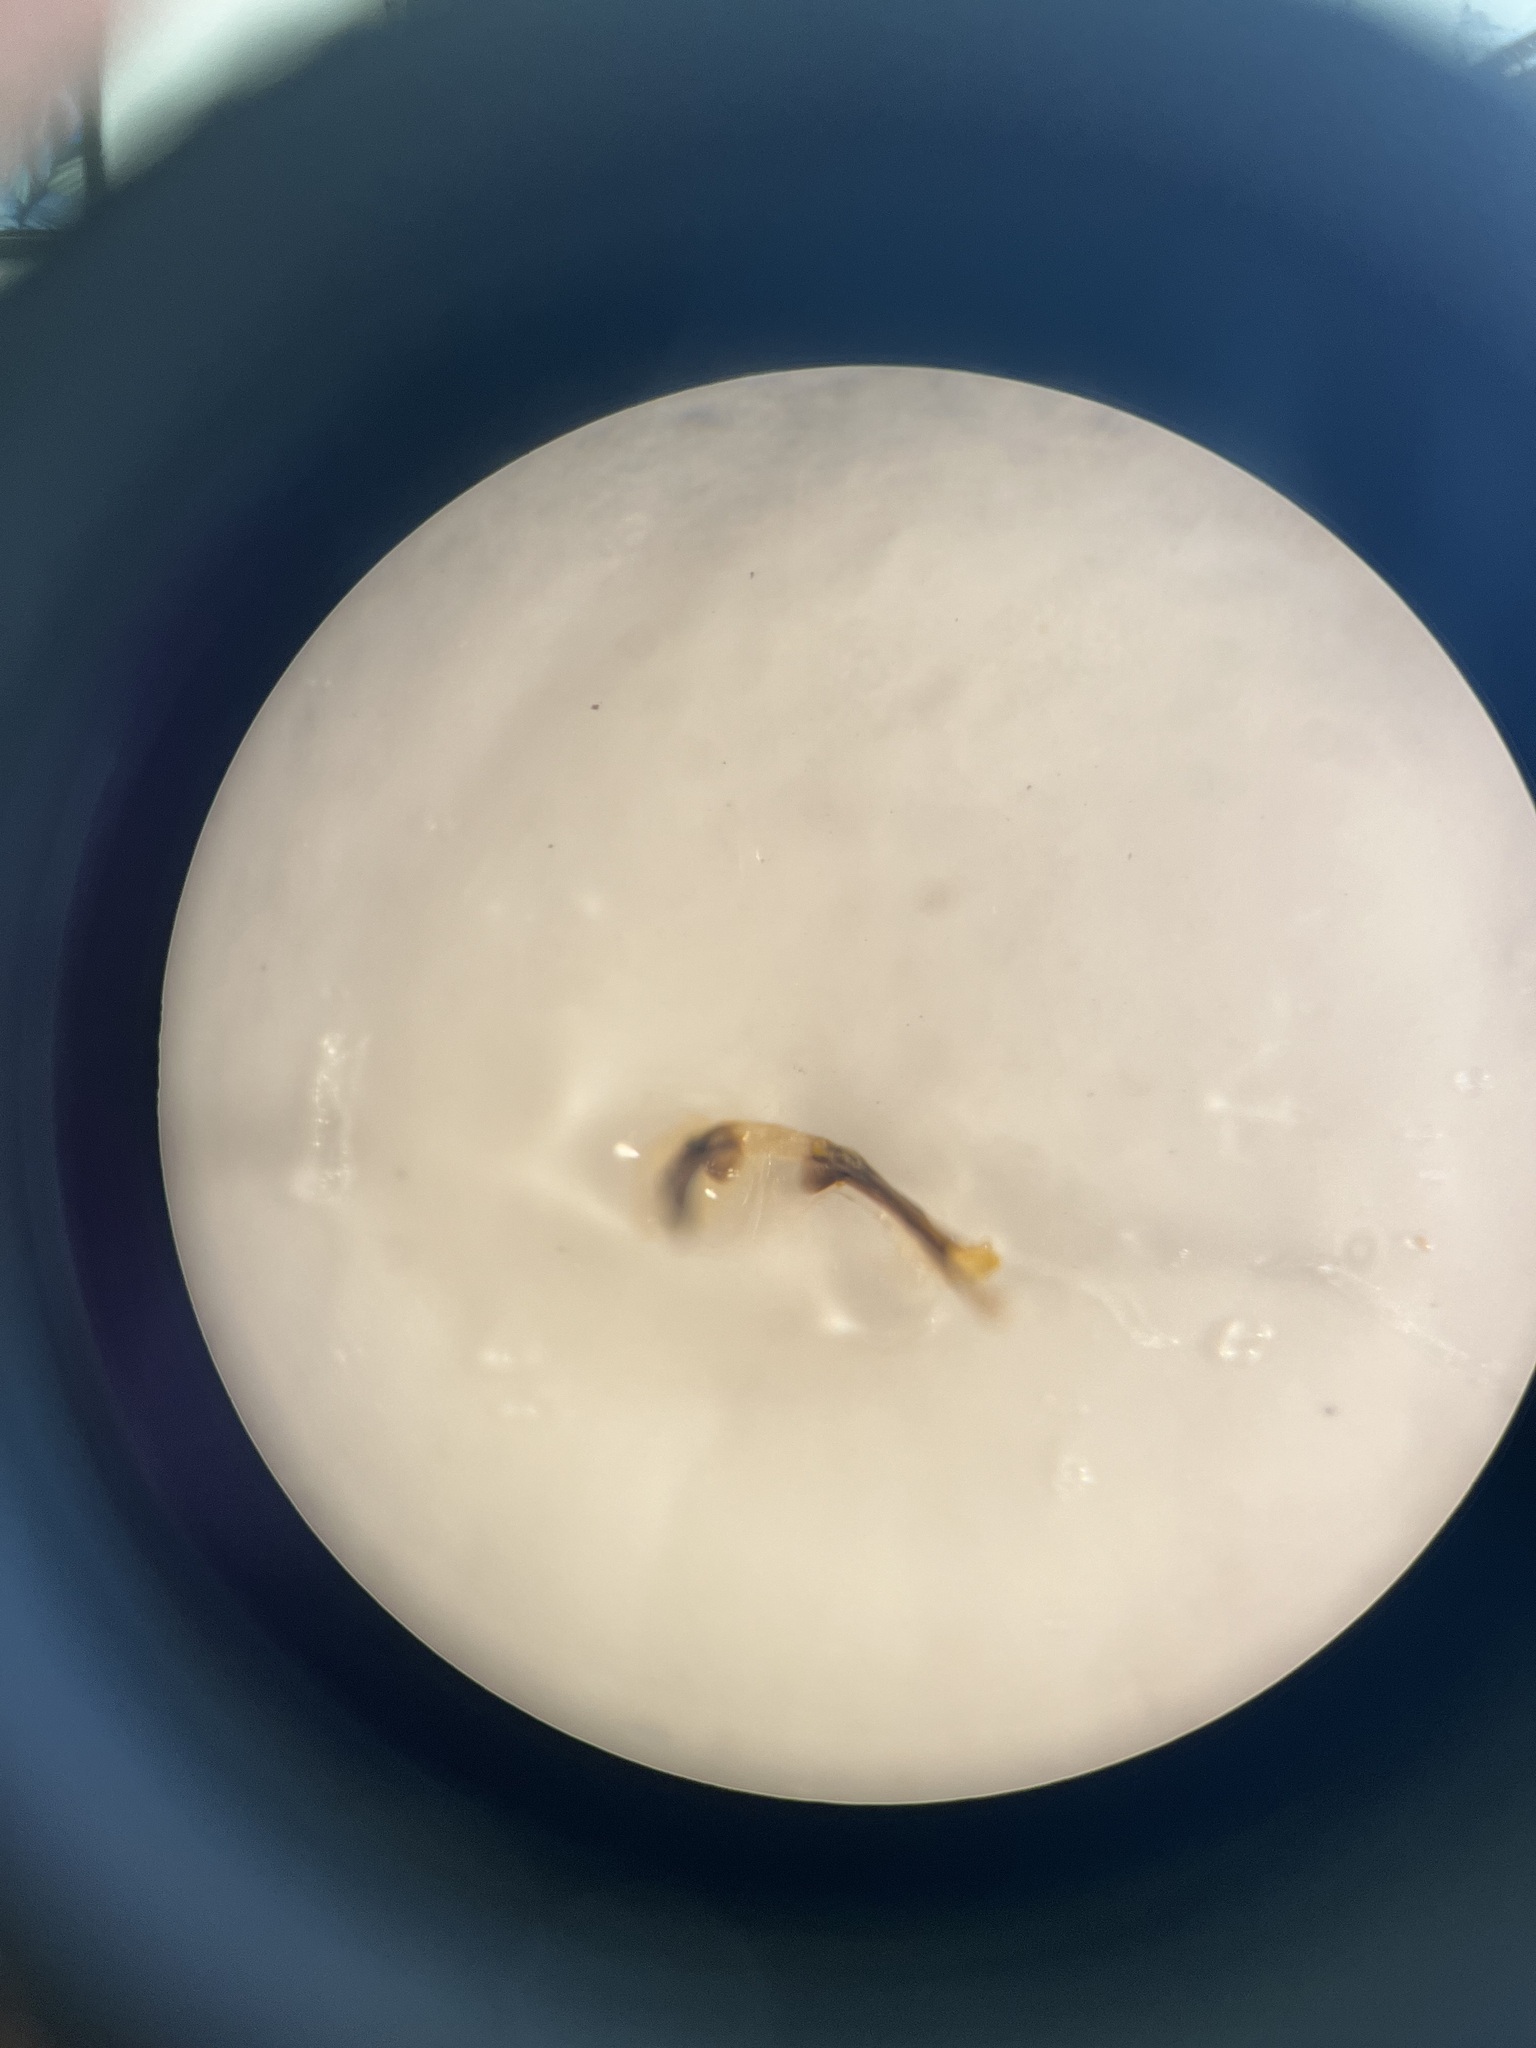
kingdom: Animalia
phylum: Arthropoda
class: Insecta
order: Hemiptera
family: Cicadellidae
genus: Macrosteles
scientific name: Macrosteles fieberi
